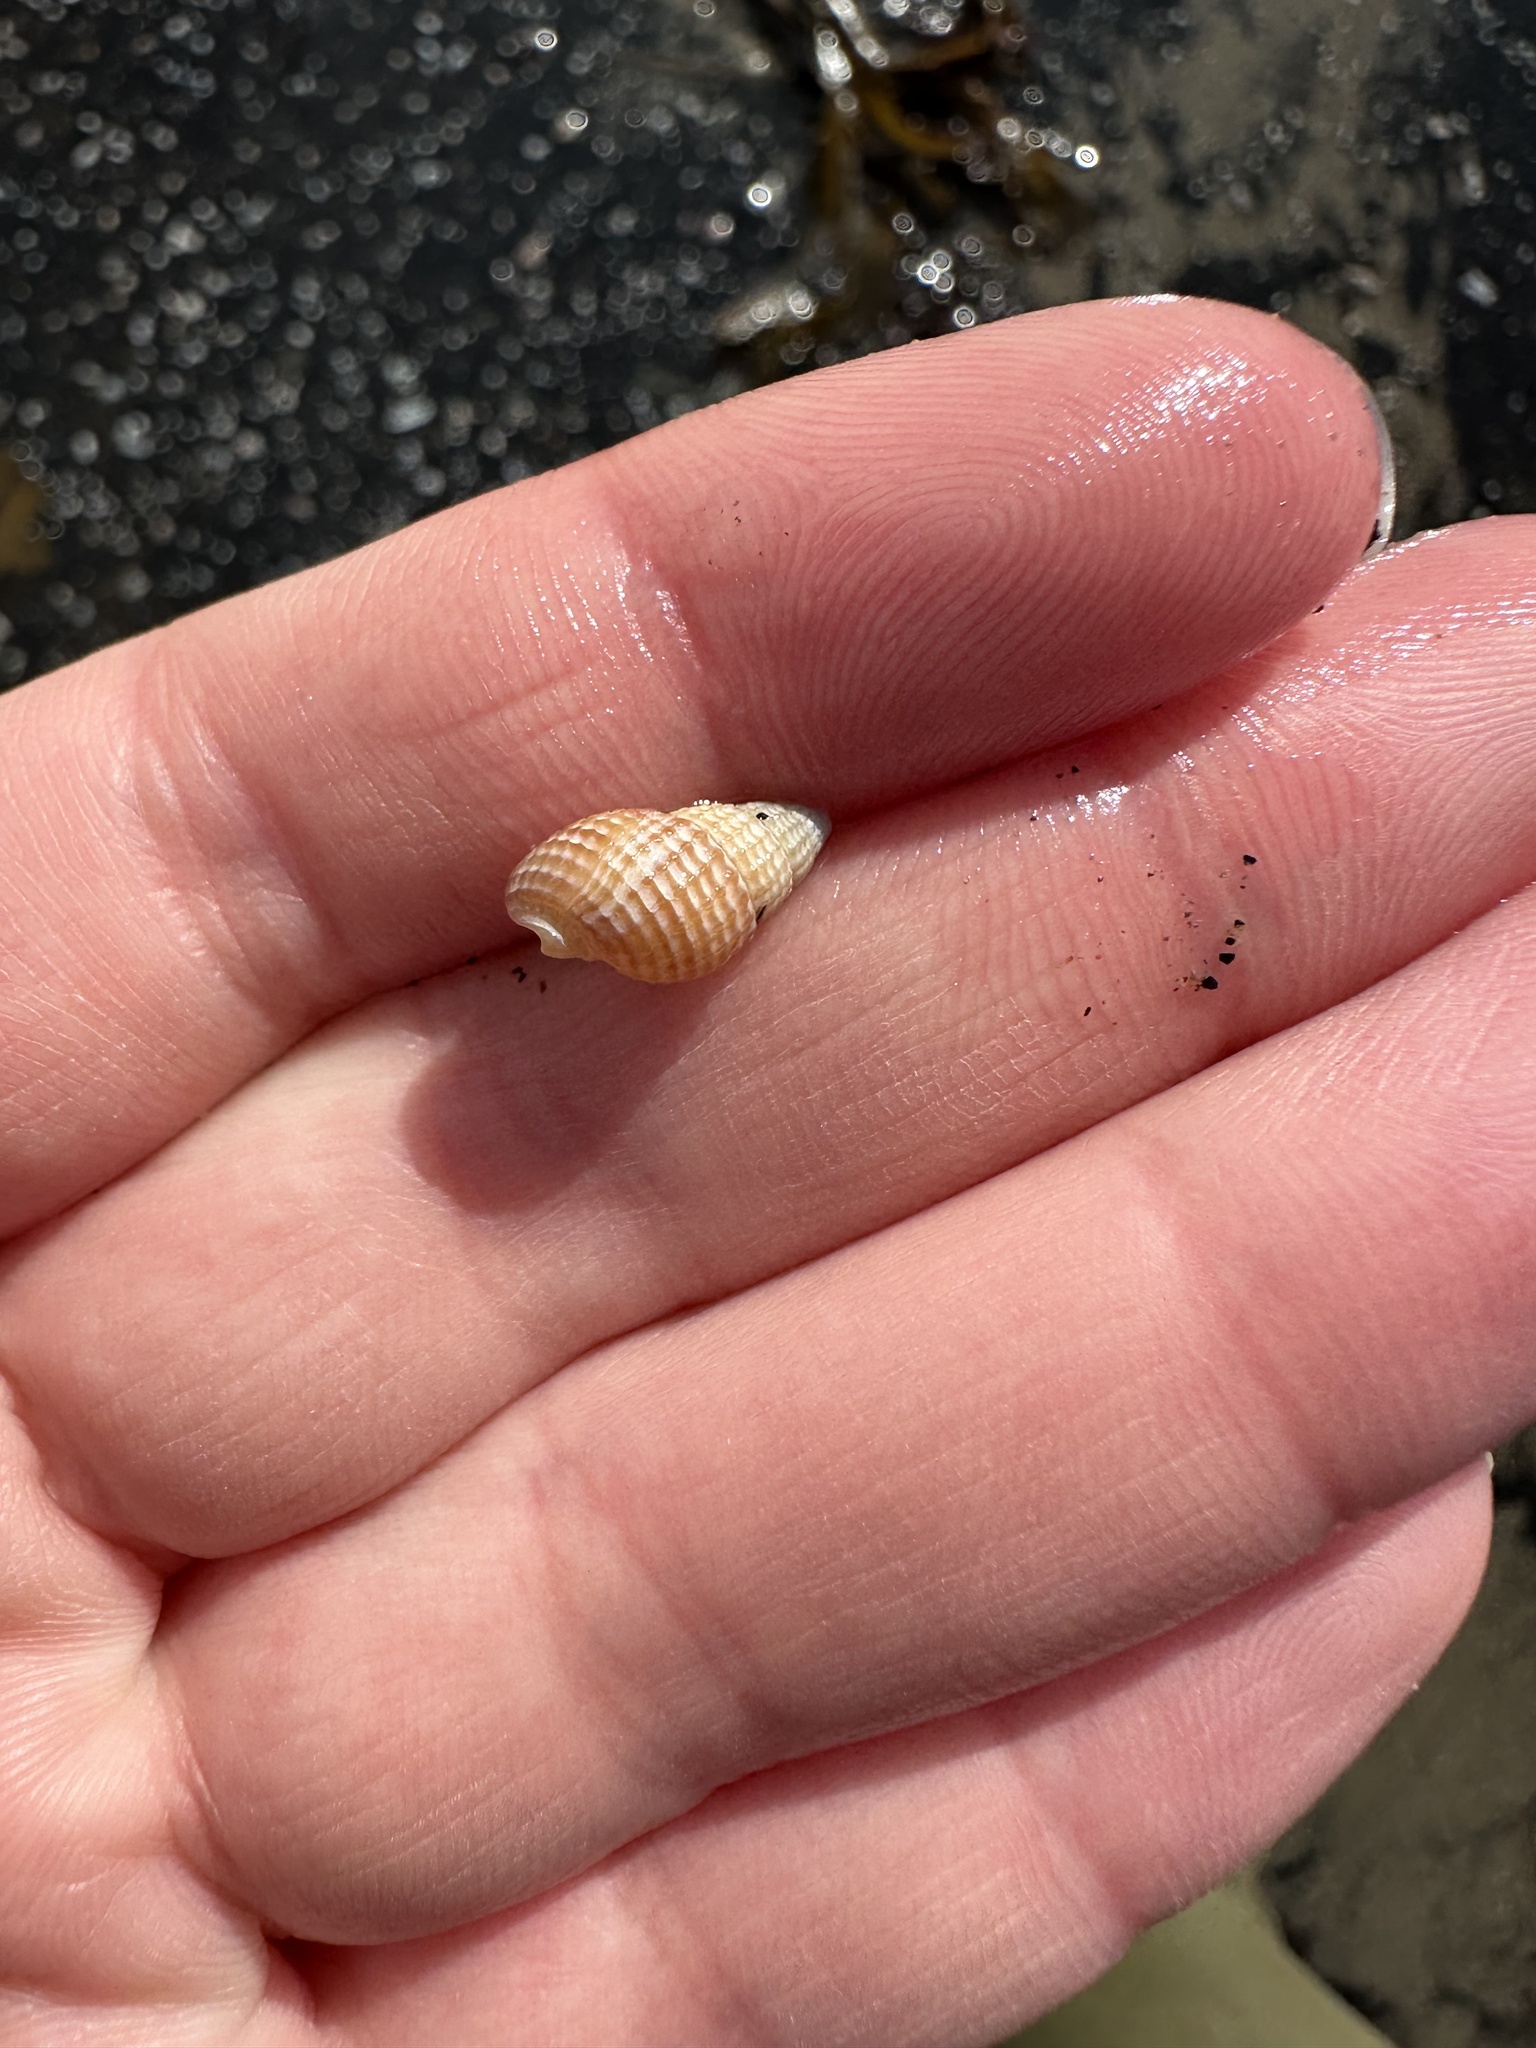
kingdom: Animalia
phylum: Mollusca
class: Gastropoda
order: Neogastropoda
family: Nassariidae
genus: Ilyanassa
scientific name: Ilyanassa trivittata
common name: Three-line mudsnail
